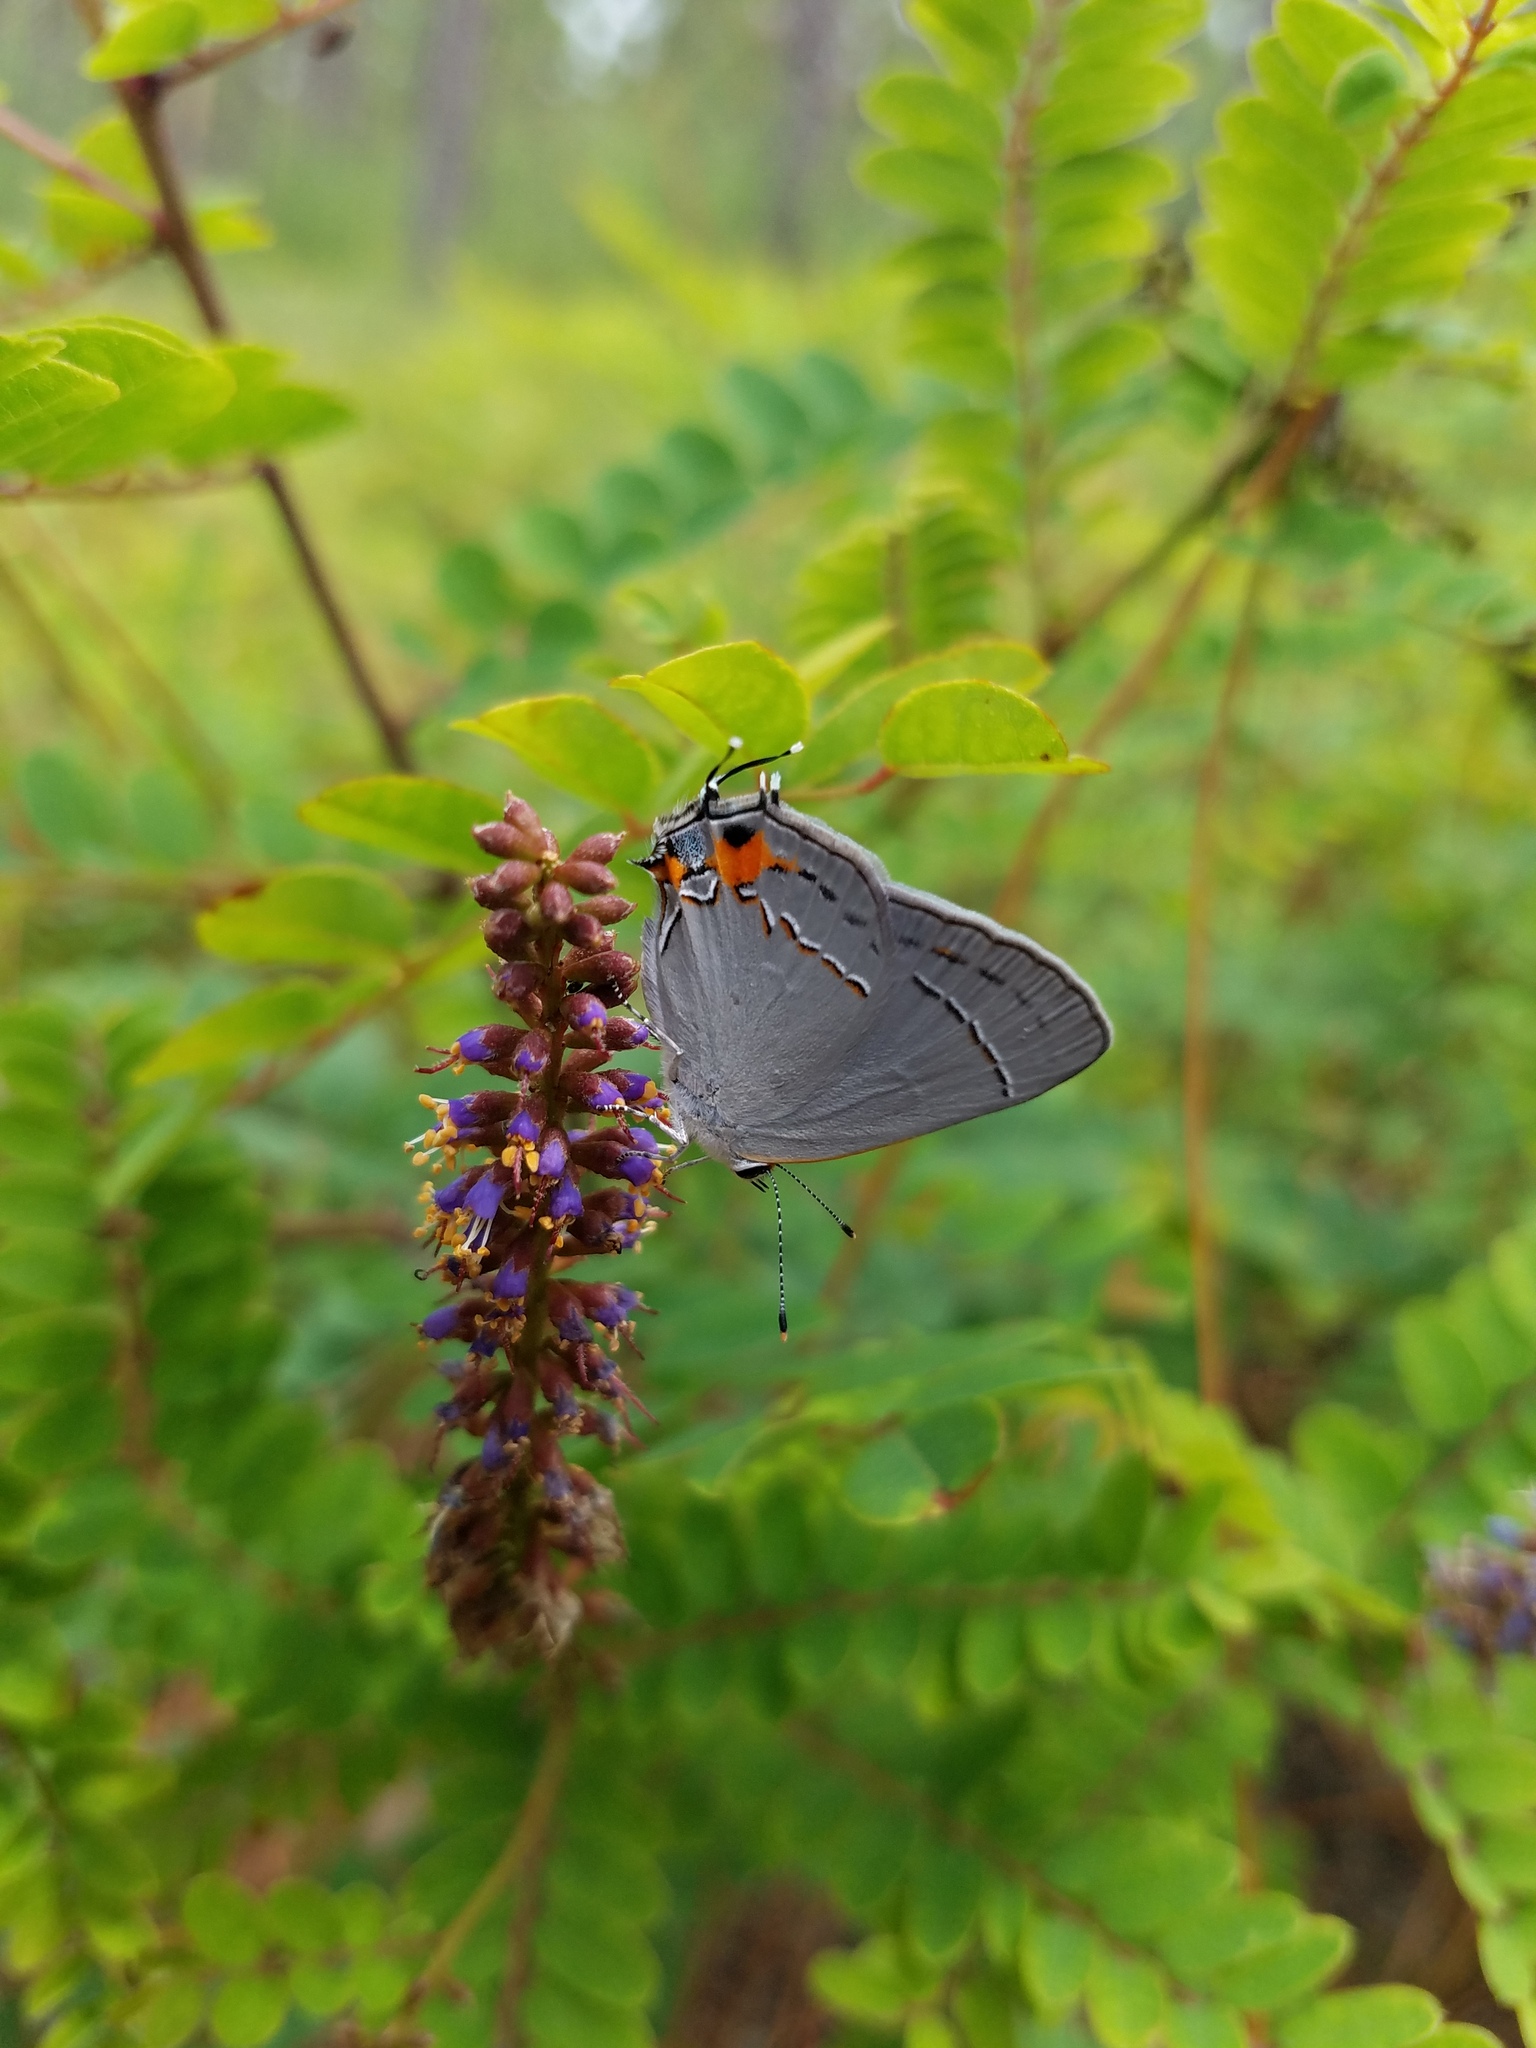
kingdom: Animalia
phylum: Arthropoda
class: Insecta
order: Lepidoptera
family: Lycaenidae
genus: Strymon
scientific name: Strymon melinus
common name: Gray hairstreak
